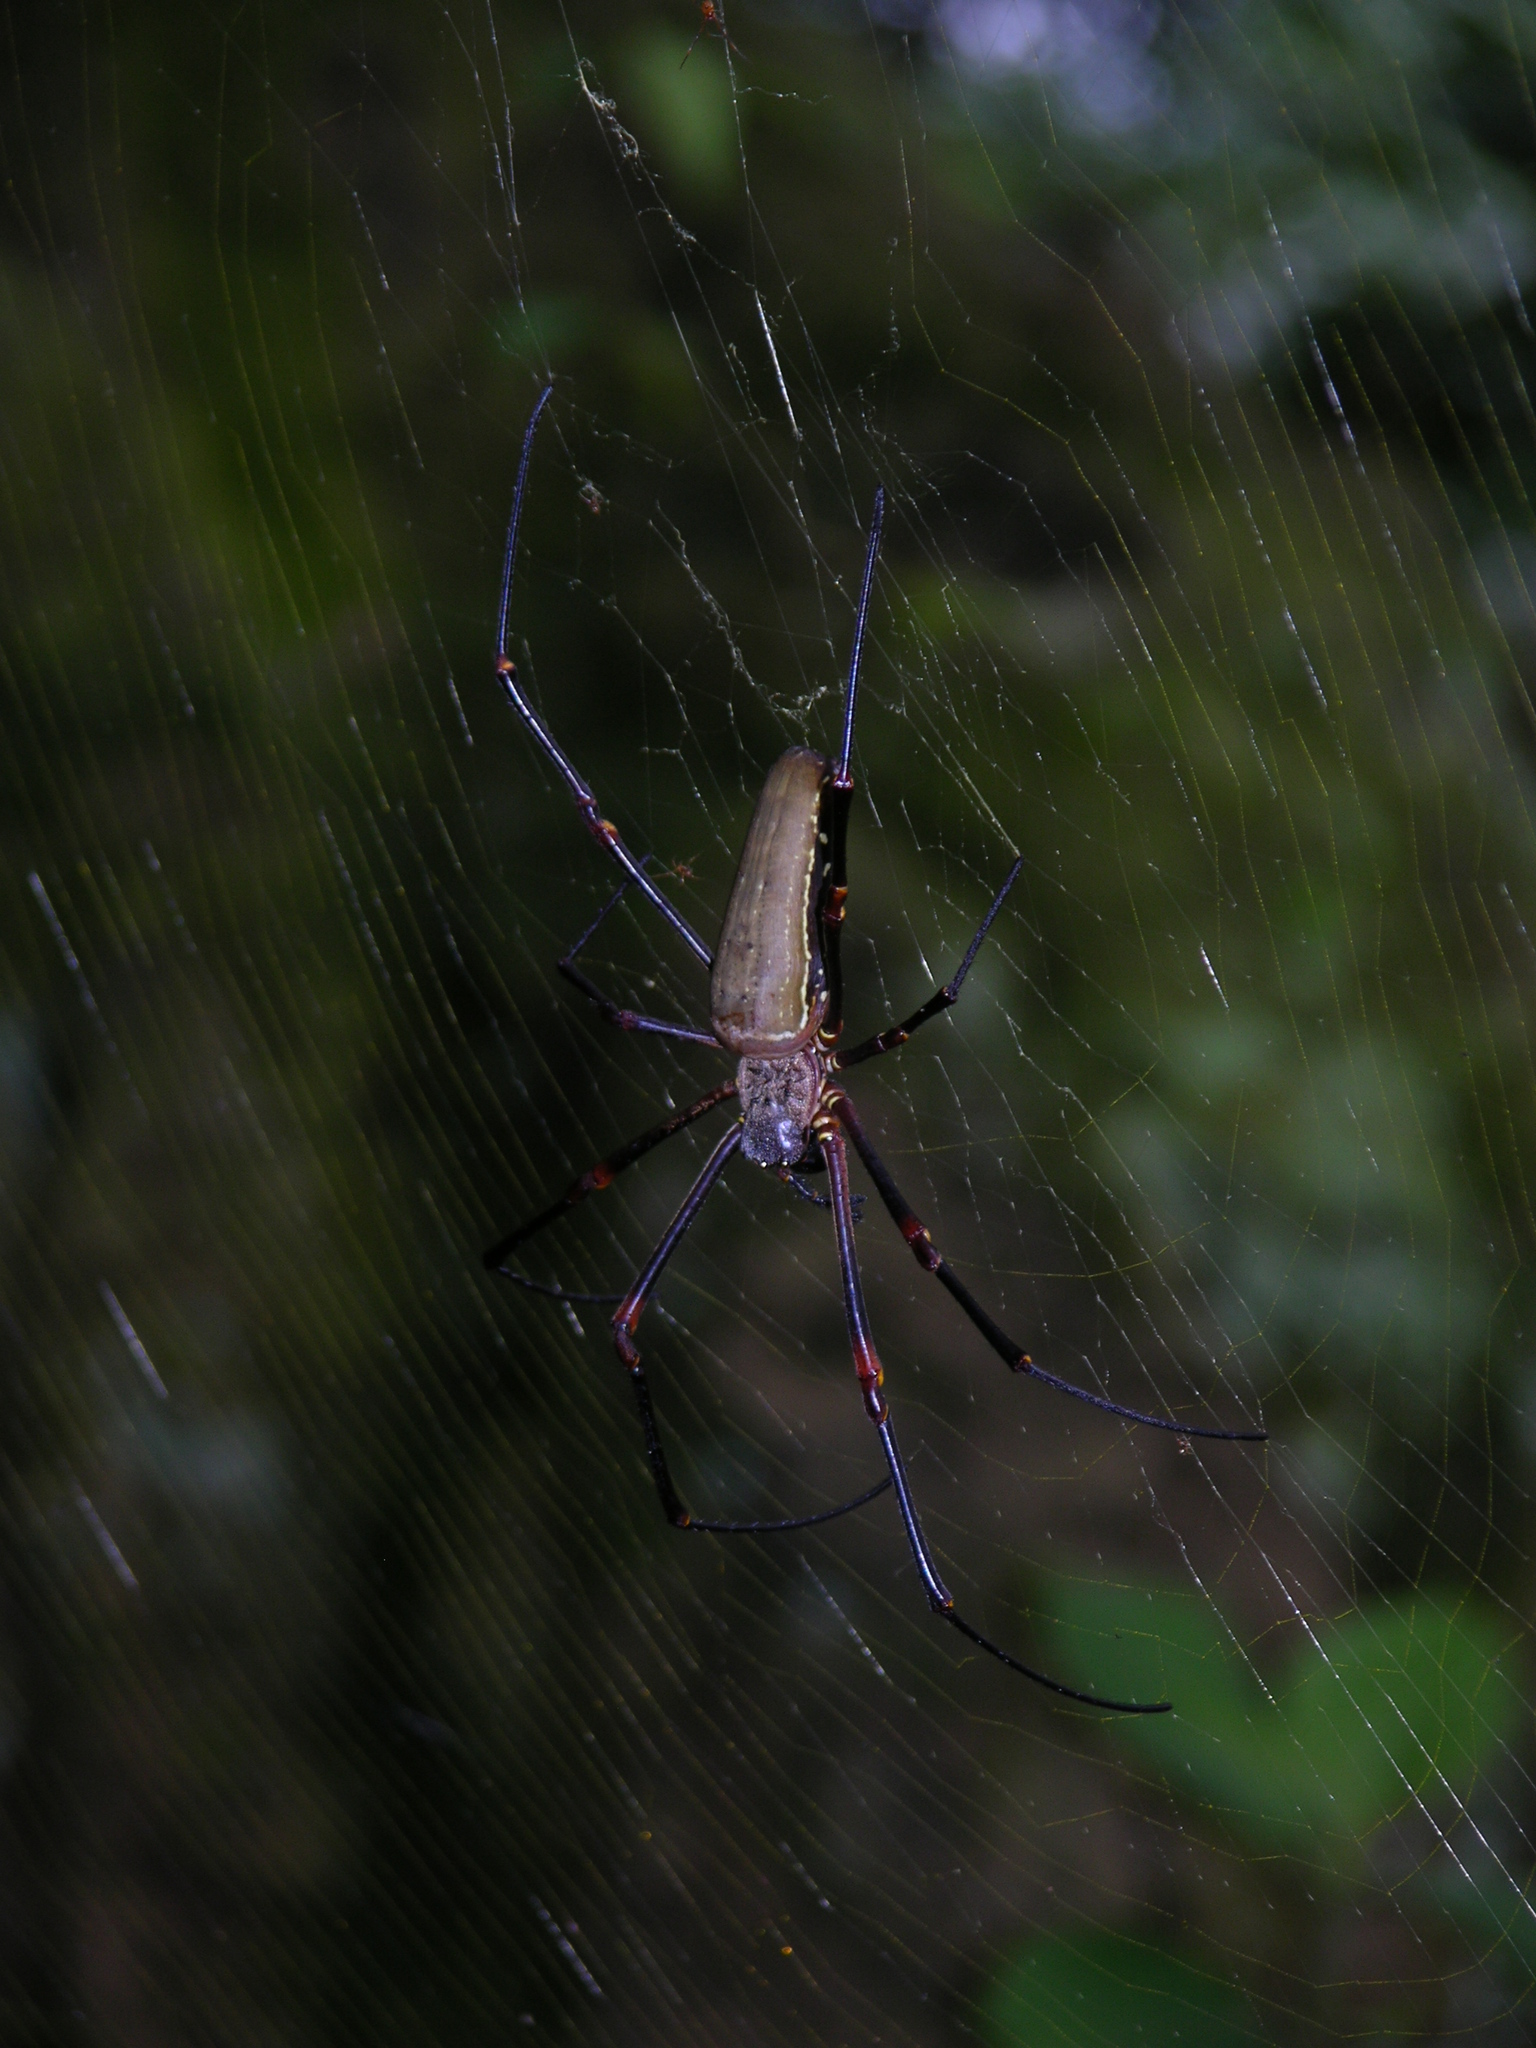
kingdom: Animalia
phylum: Arthropoda
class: Arachnida
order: Araneae
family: Araneidae
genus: Nephila
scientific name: Nephila constricta
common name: Constricted golden orb weaver
